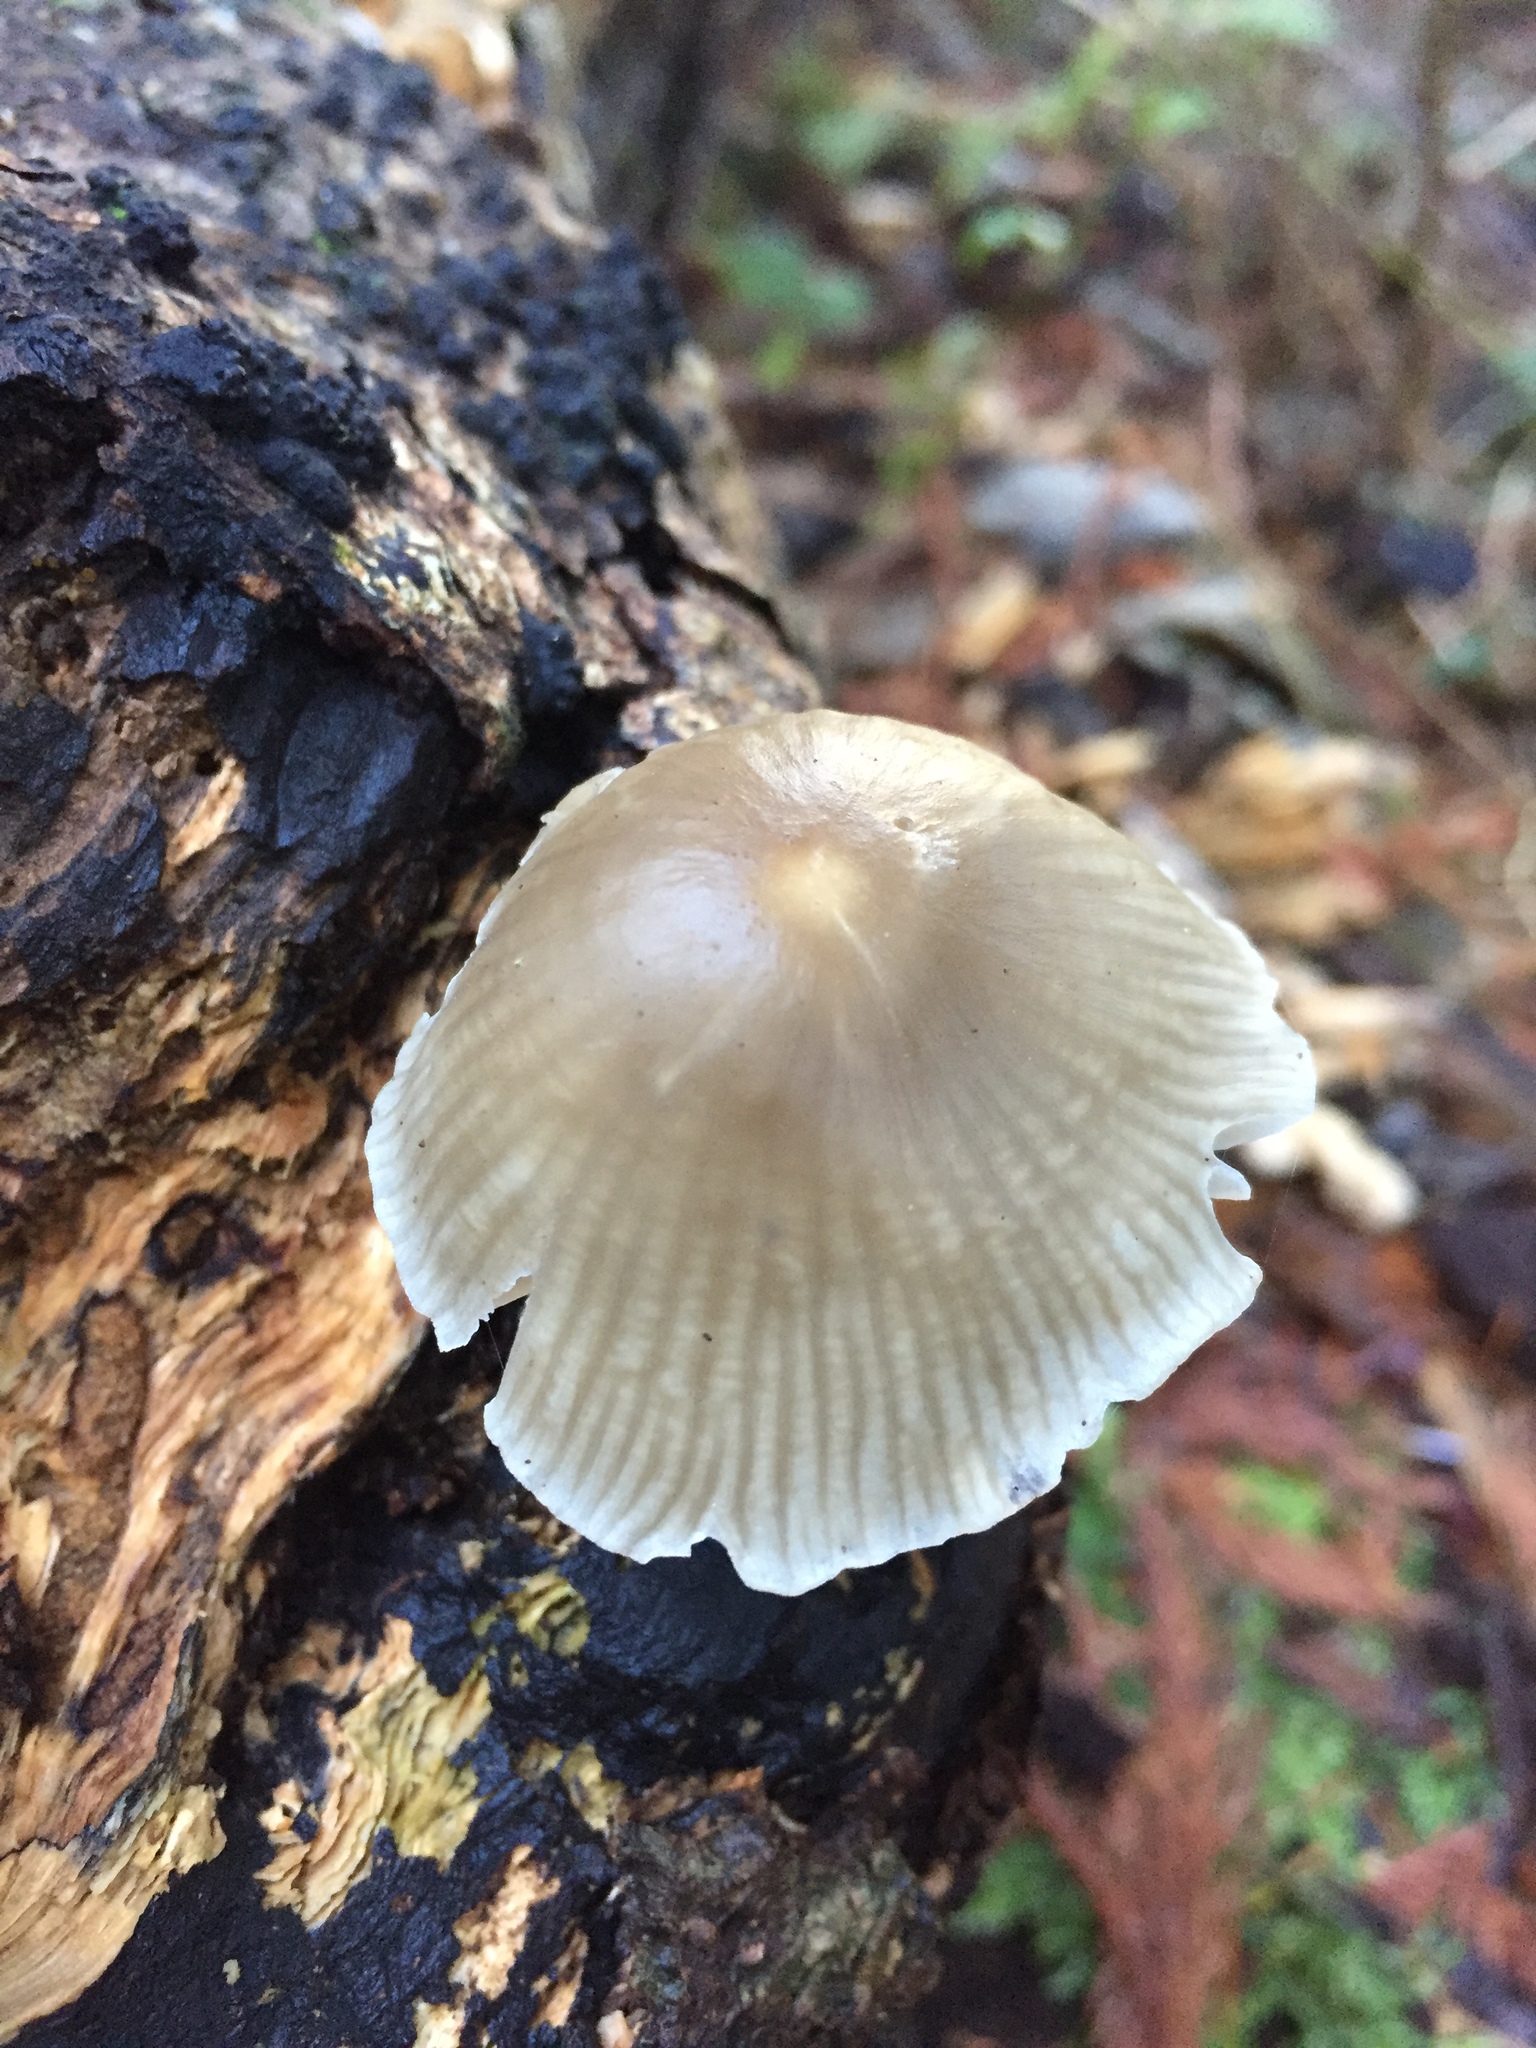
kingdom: Fungi
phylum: Basidiomycota
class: Agaricomycetes
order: Agaricales
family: Mycenaceae
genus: Mycena
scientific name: Mycena galericulata
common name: Bonnet mycena
